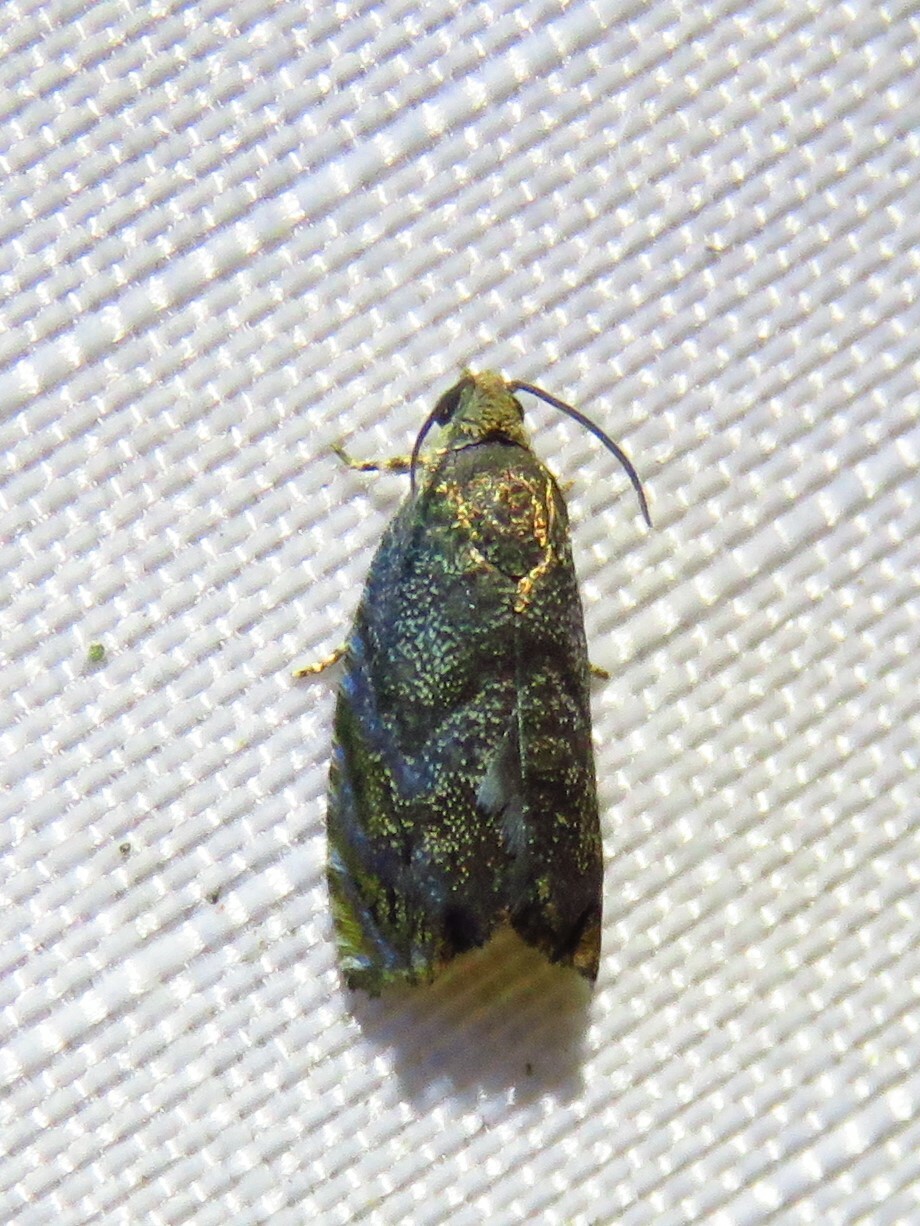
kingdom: Animalia
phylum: Arthropoda
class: Insecta
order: Lepidoptera
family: Tortricidae
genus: Cydia
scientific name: Cydia caryana
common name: Hickory shuckworm moth
